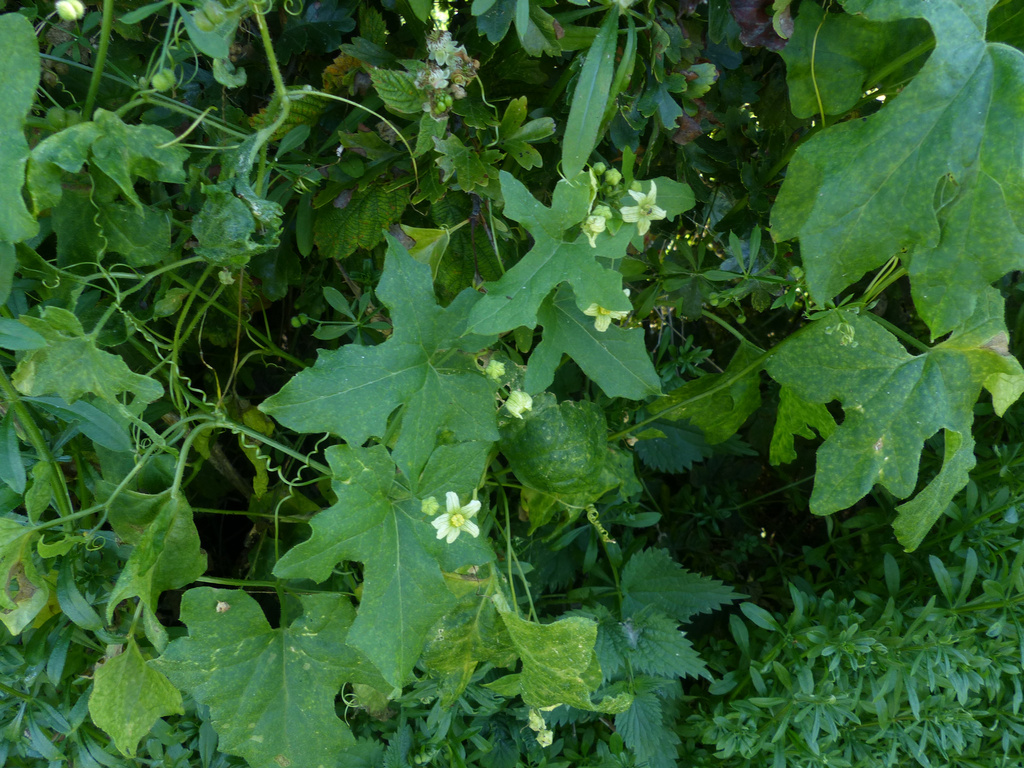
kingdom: Plantae
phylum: Tracheophyta
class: Magnoliopsida
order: Cucurbitales
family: Cucurbitaceae
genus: Bryonia
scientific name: Bryonia cretica
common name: Cretan bryony
